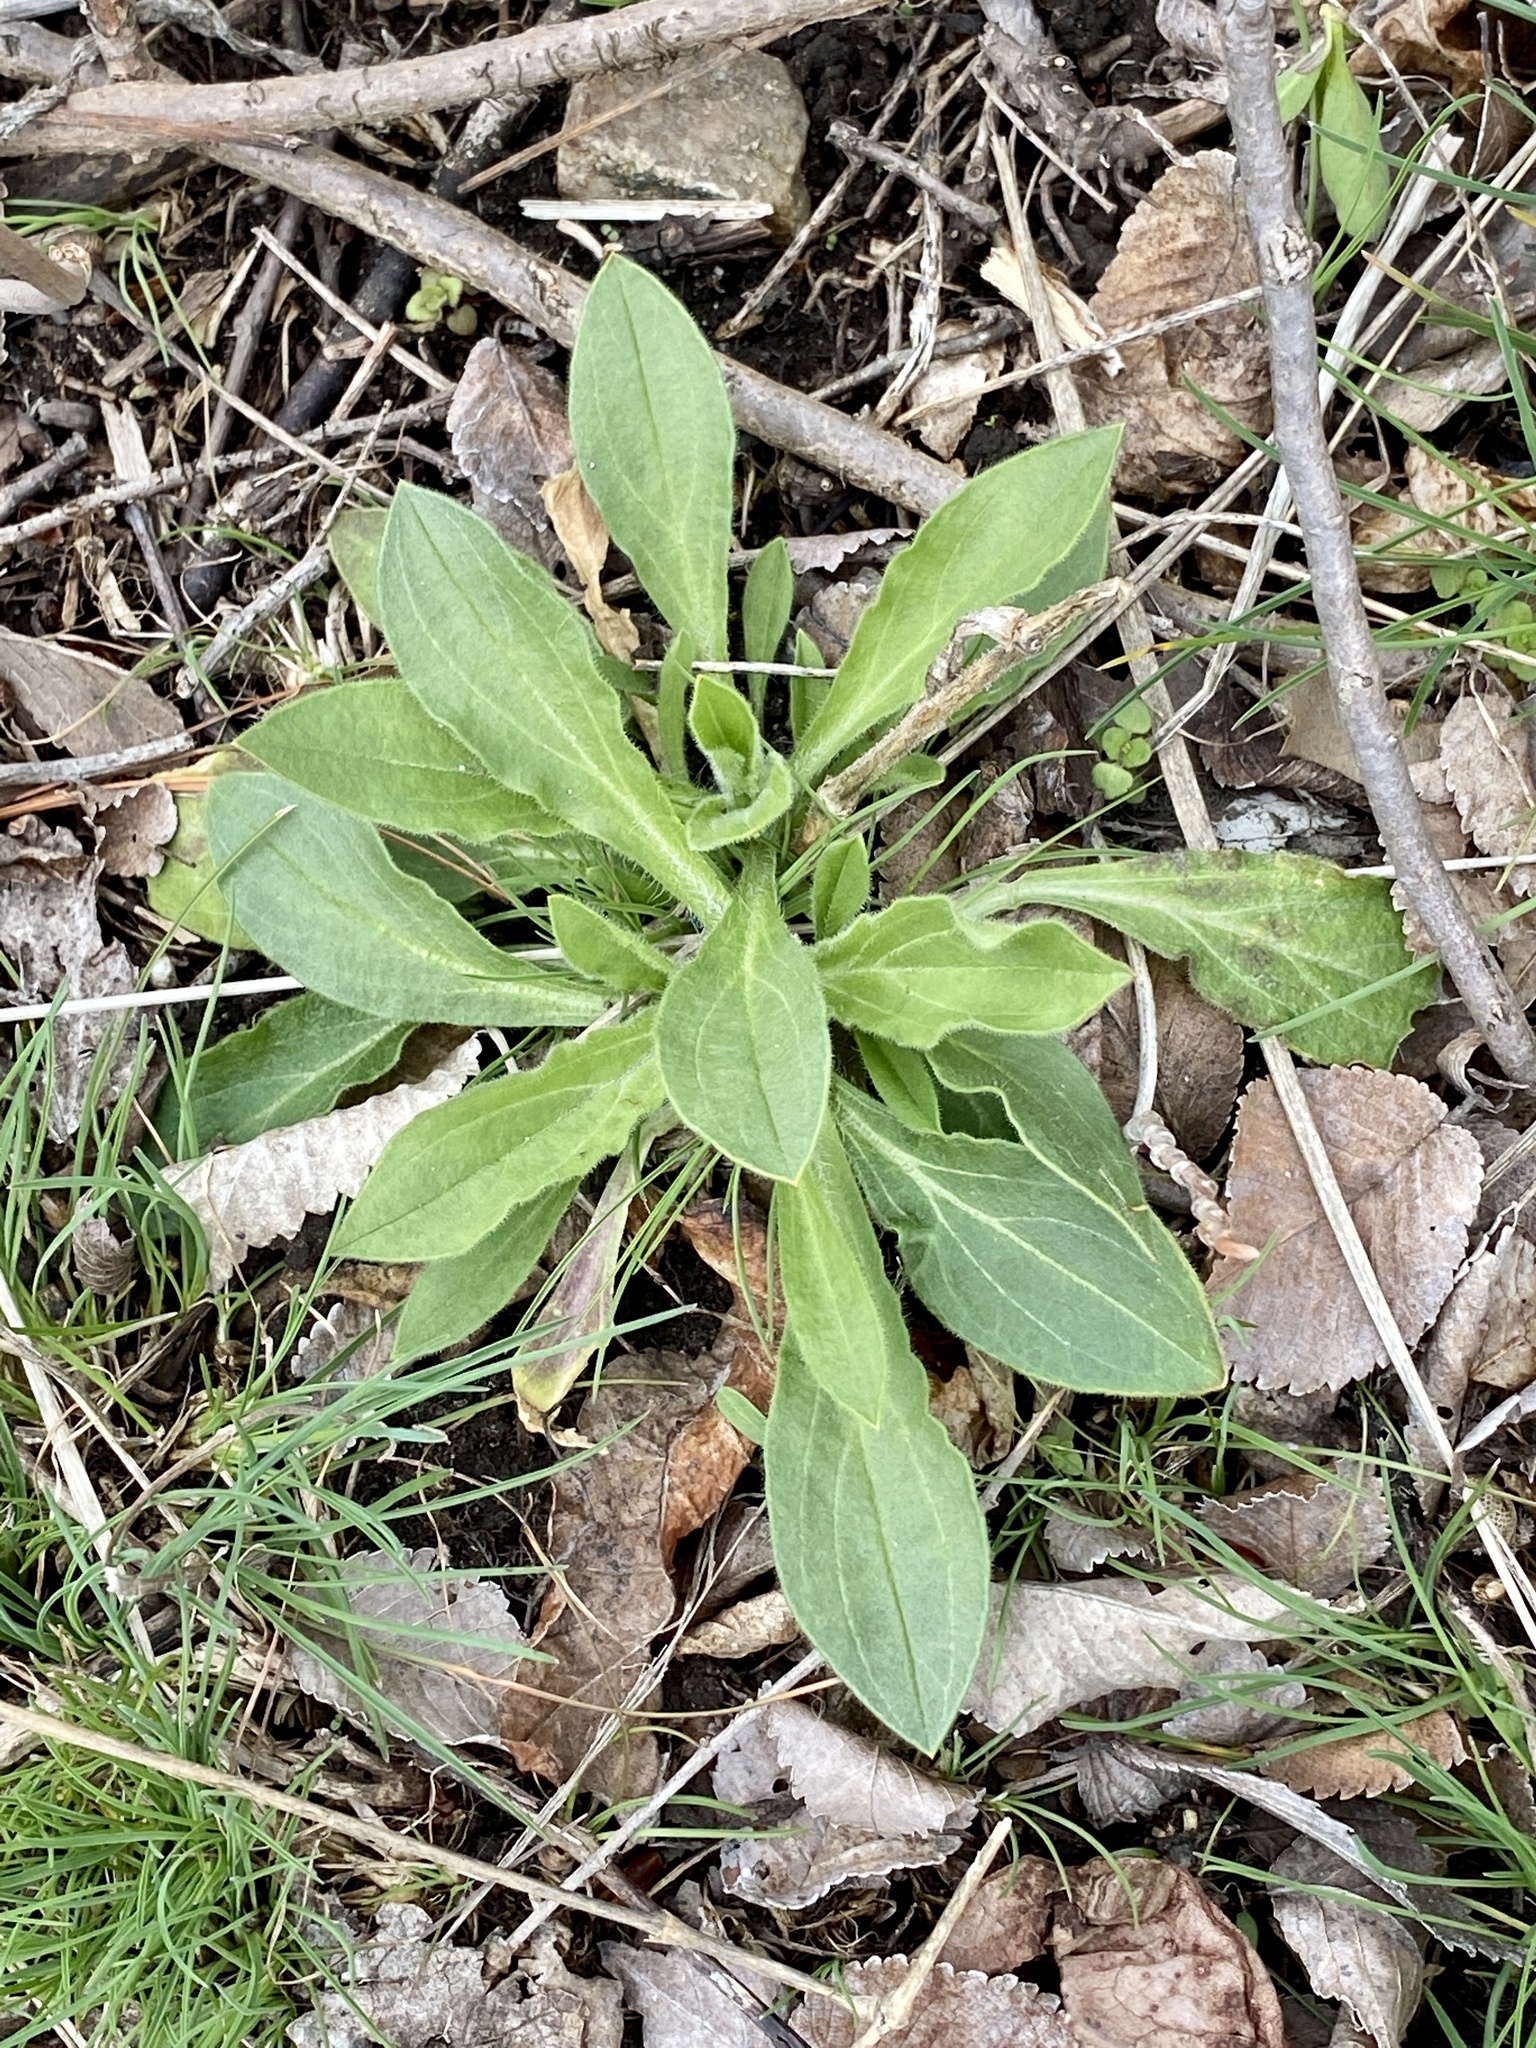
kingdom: Plantae
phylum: Tracheophyta
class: Magnoliopsida
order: Caryophyllales
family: Caryophyllaceae
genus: Silene
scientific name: Silene latifolia
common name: White campion
